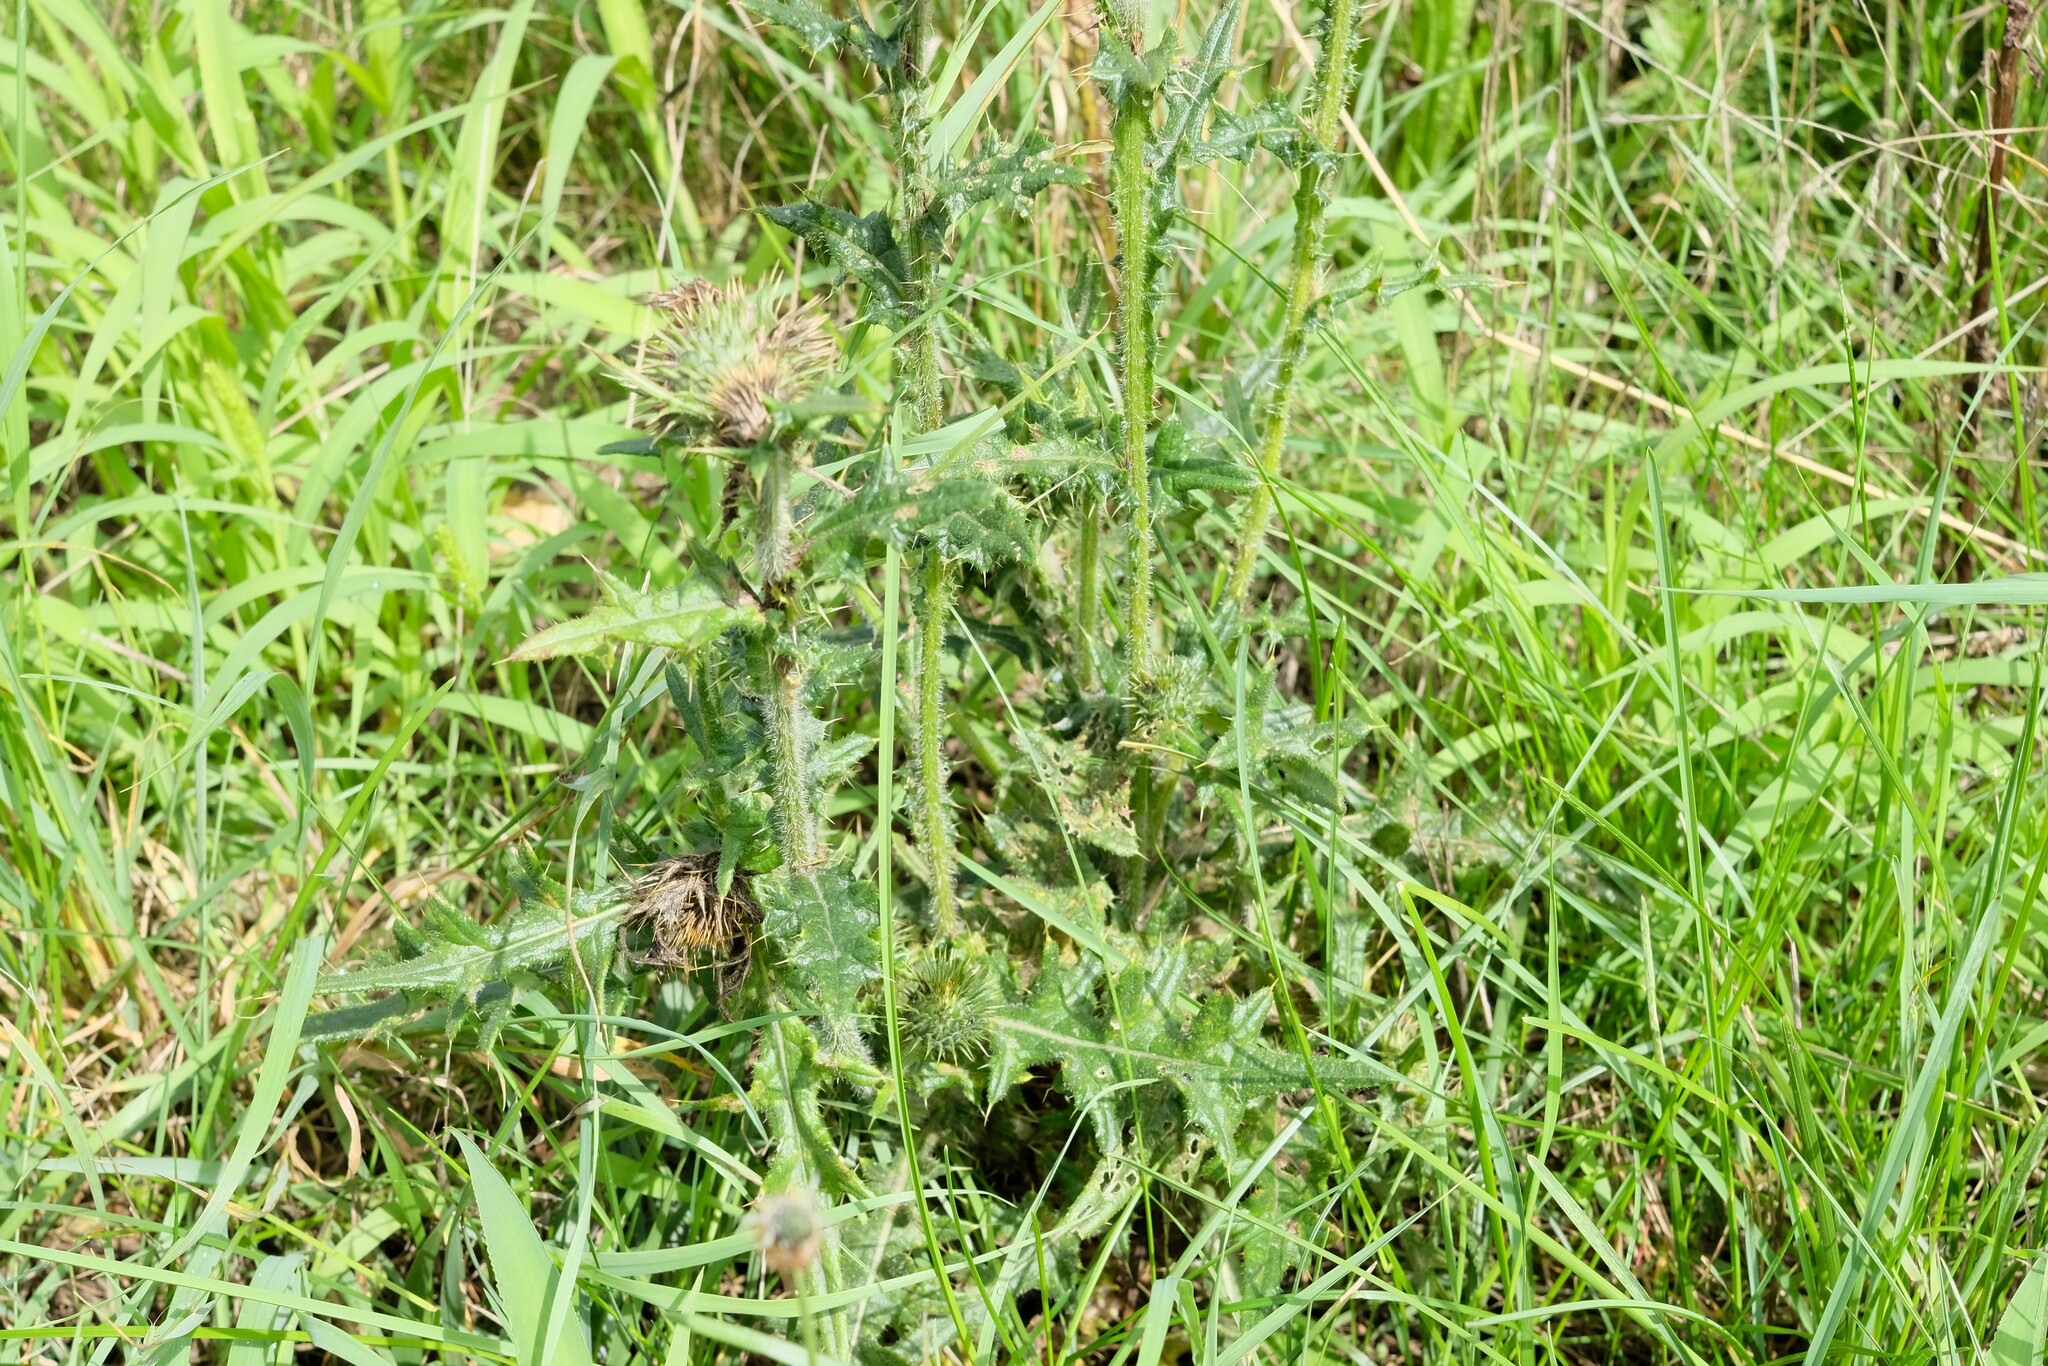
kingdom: Plantae
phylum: Tracheophyta
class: Magnoliopsida
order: Asterales
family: Asteraceae
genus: Cirsium
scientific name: Cirsium vulgare
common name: Bull thistle
